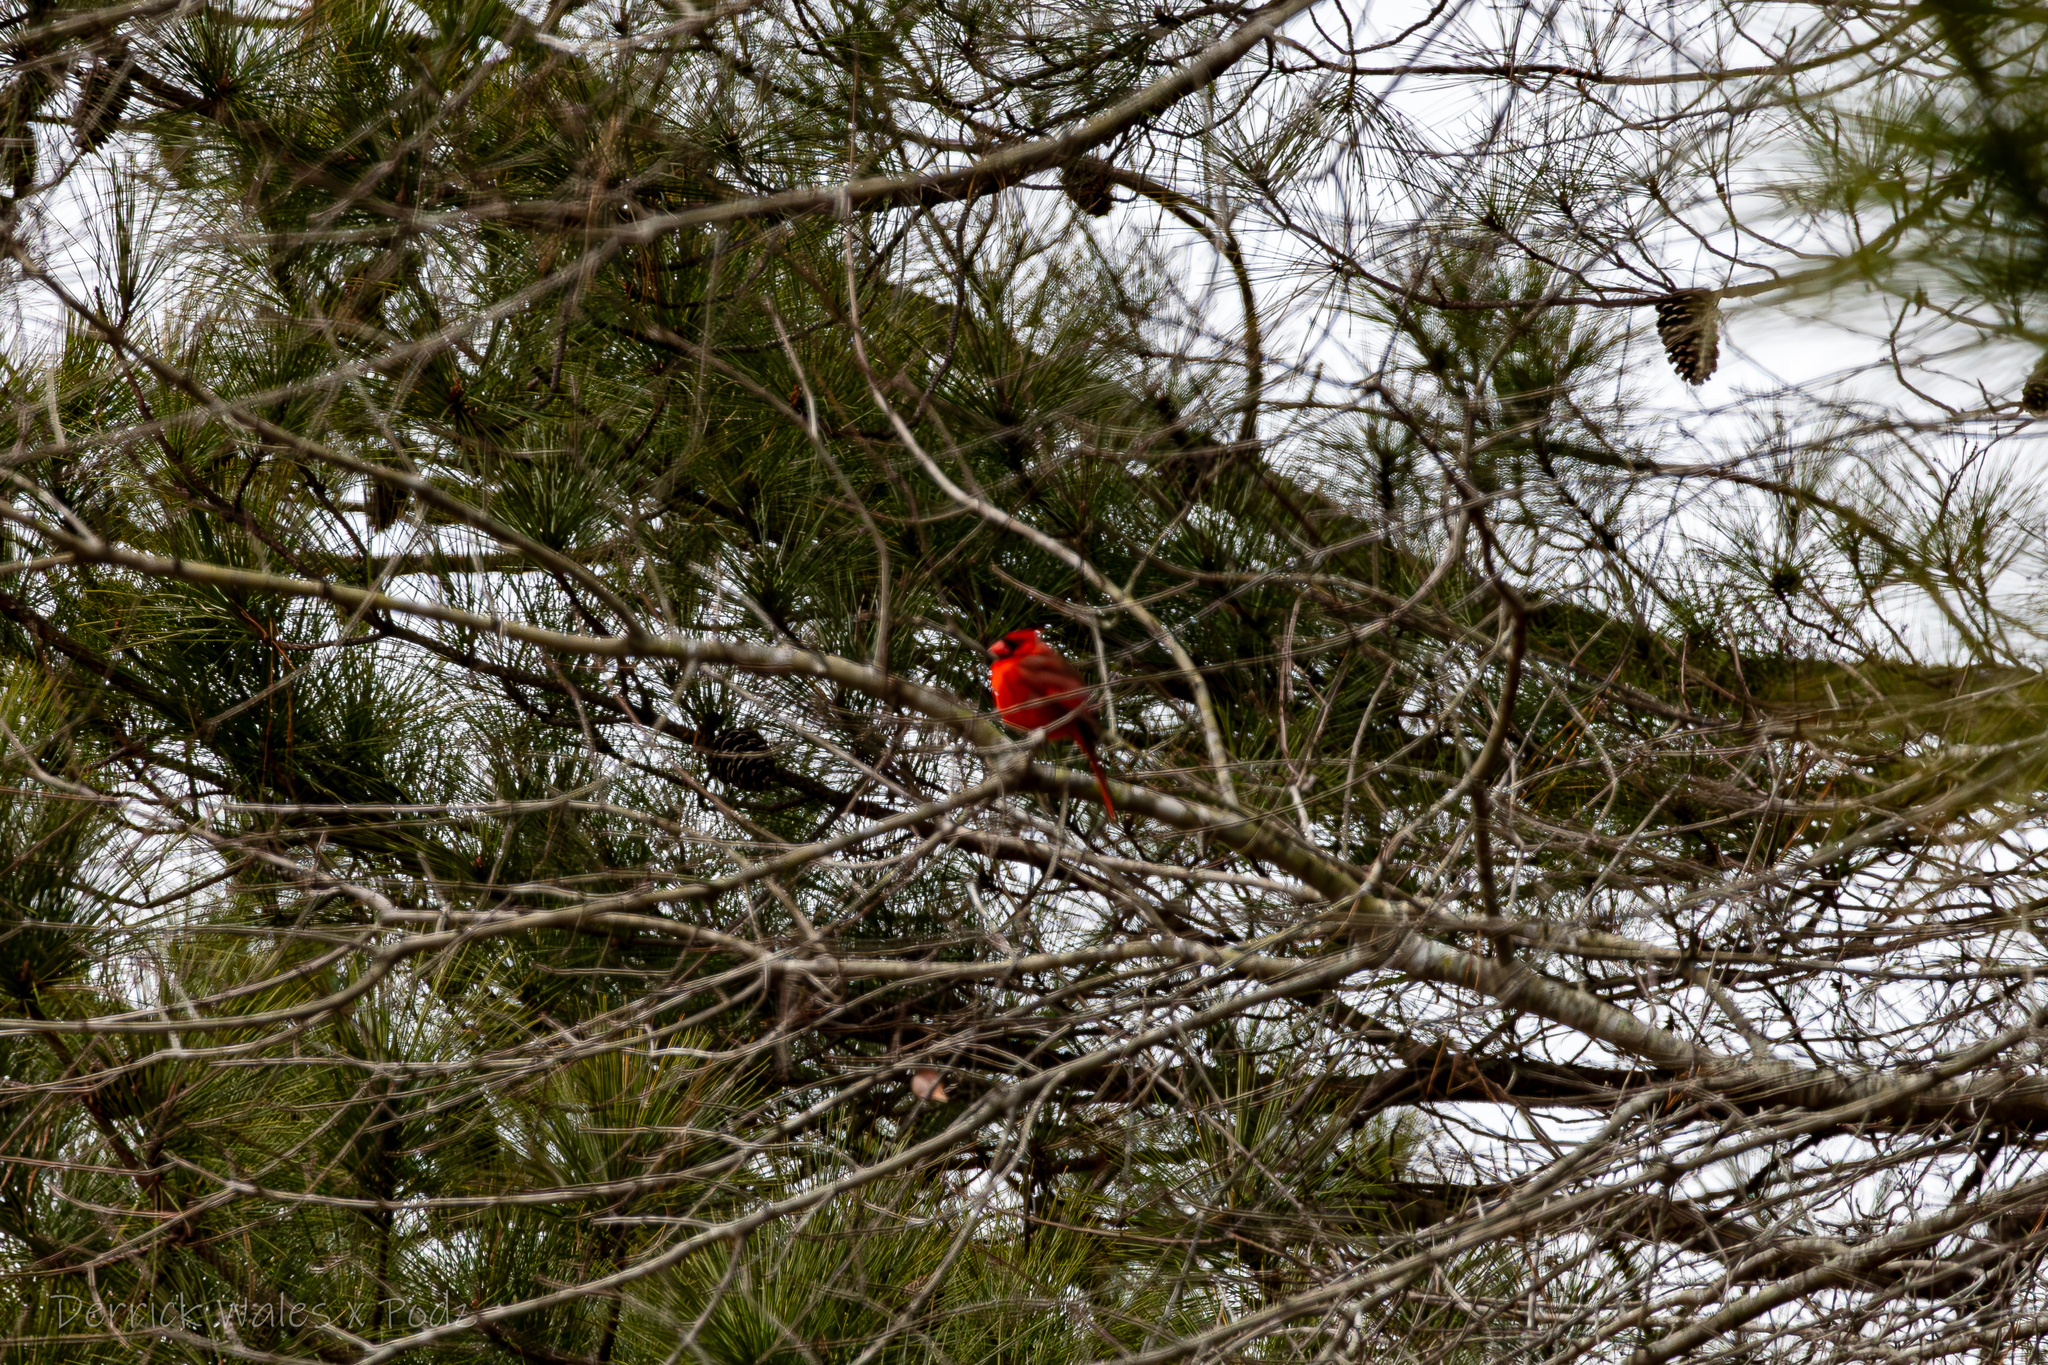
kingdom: Animalia
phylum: Chordata
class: Aves
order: Passeriformes
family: Cardinalidae
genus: Cardinalis
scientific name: Cardinalis cardinalis
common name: Northern cardinal
